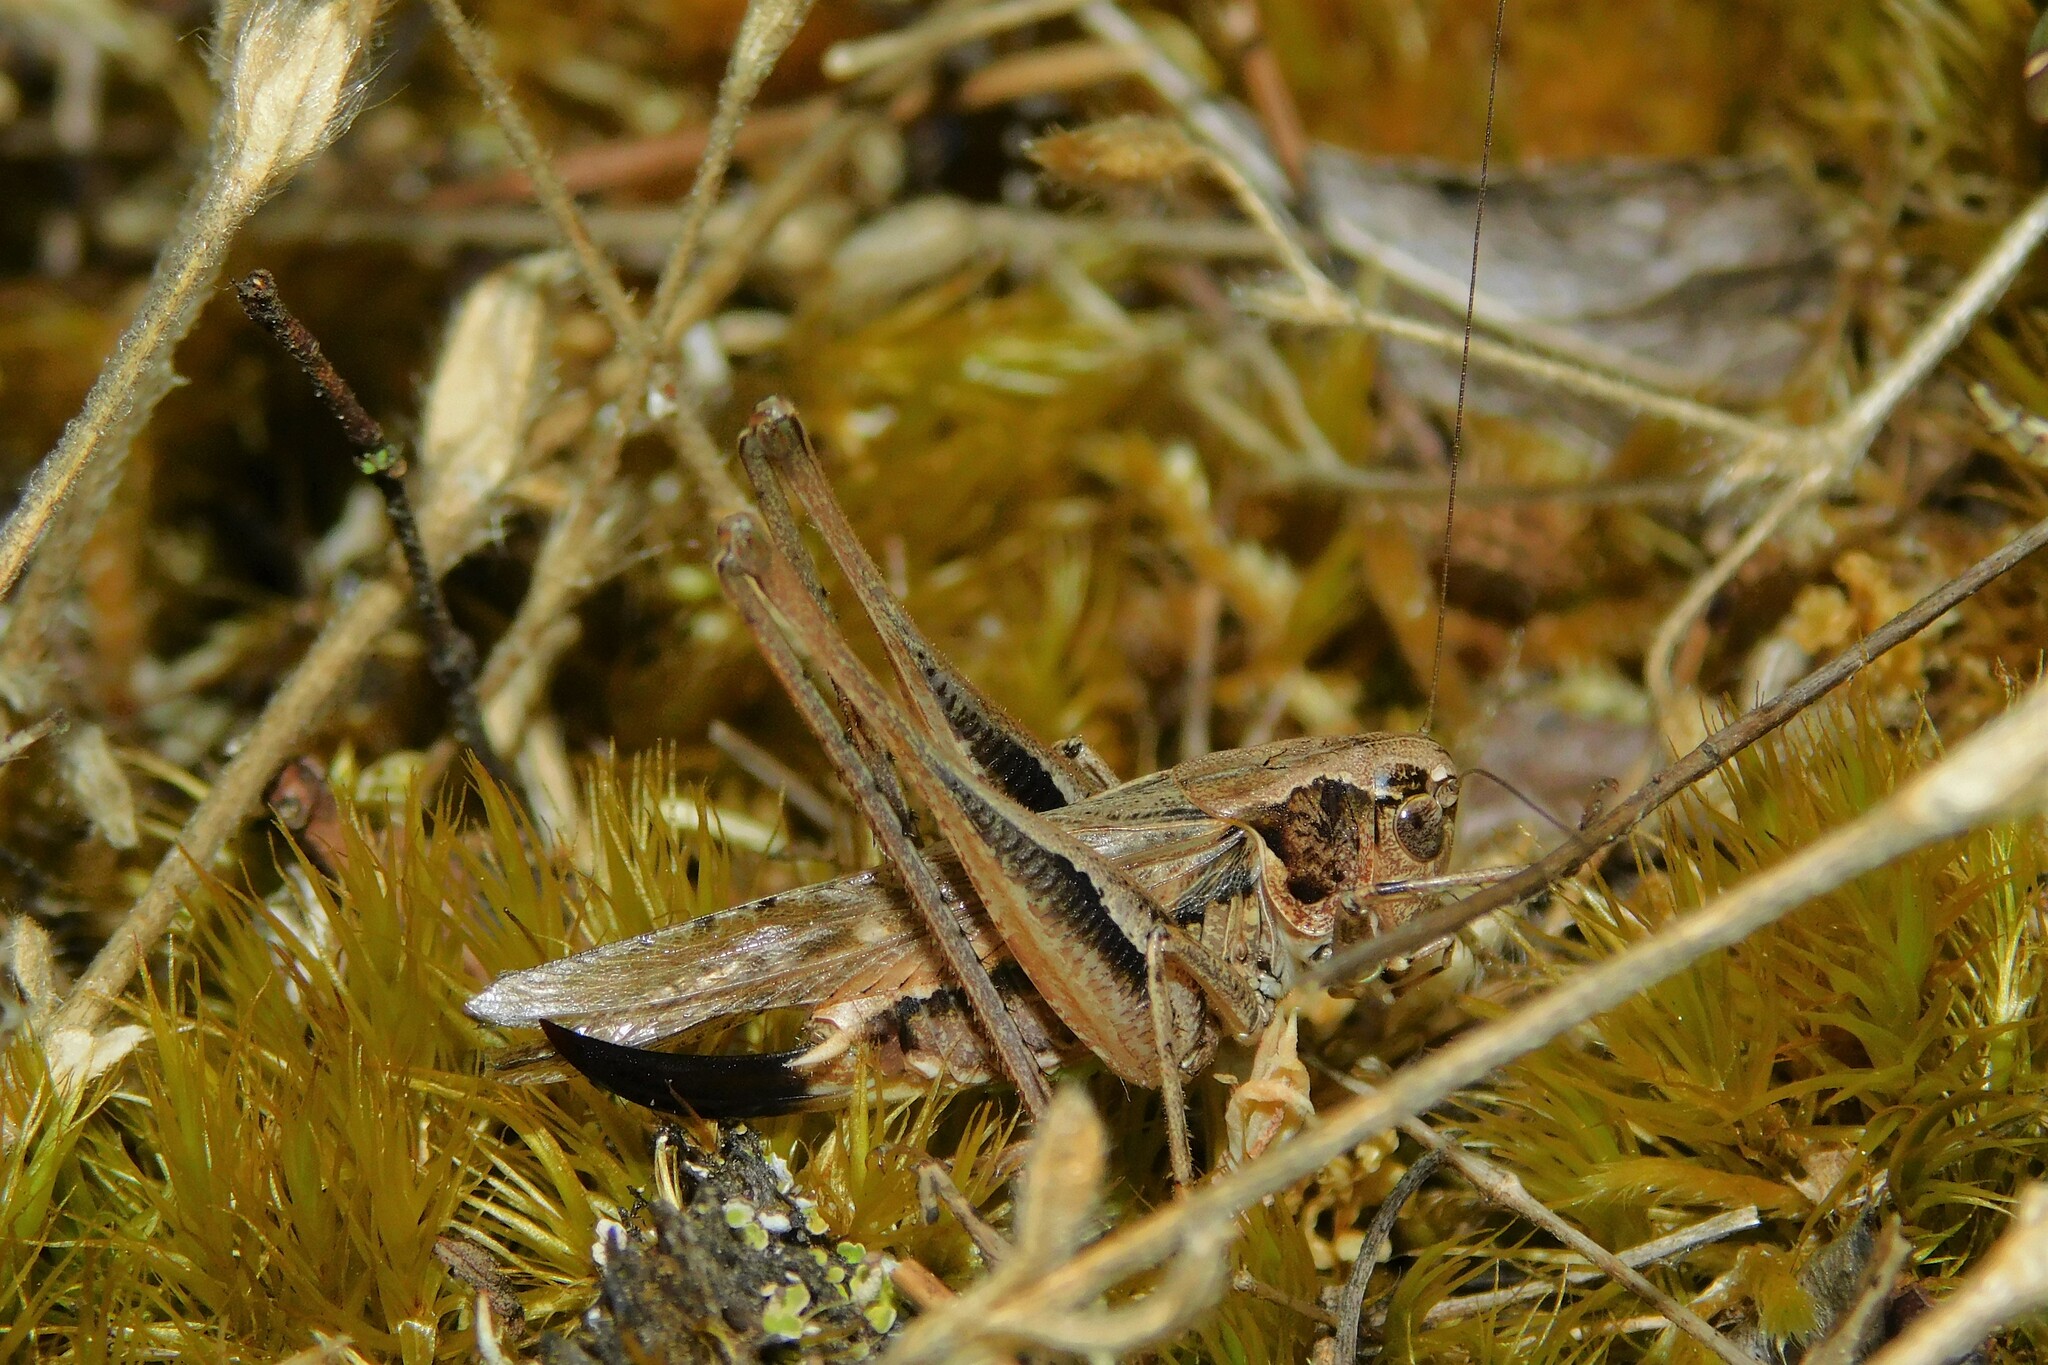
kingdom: Animalia
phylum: Arthropoda
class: Insecta
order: Orthoptera
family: Tettigoniidae
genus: Platycleis
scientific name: Platycleis albopunctata
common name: Grey bush-cricket
